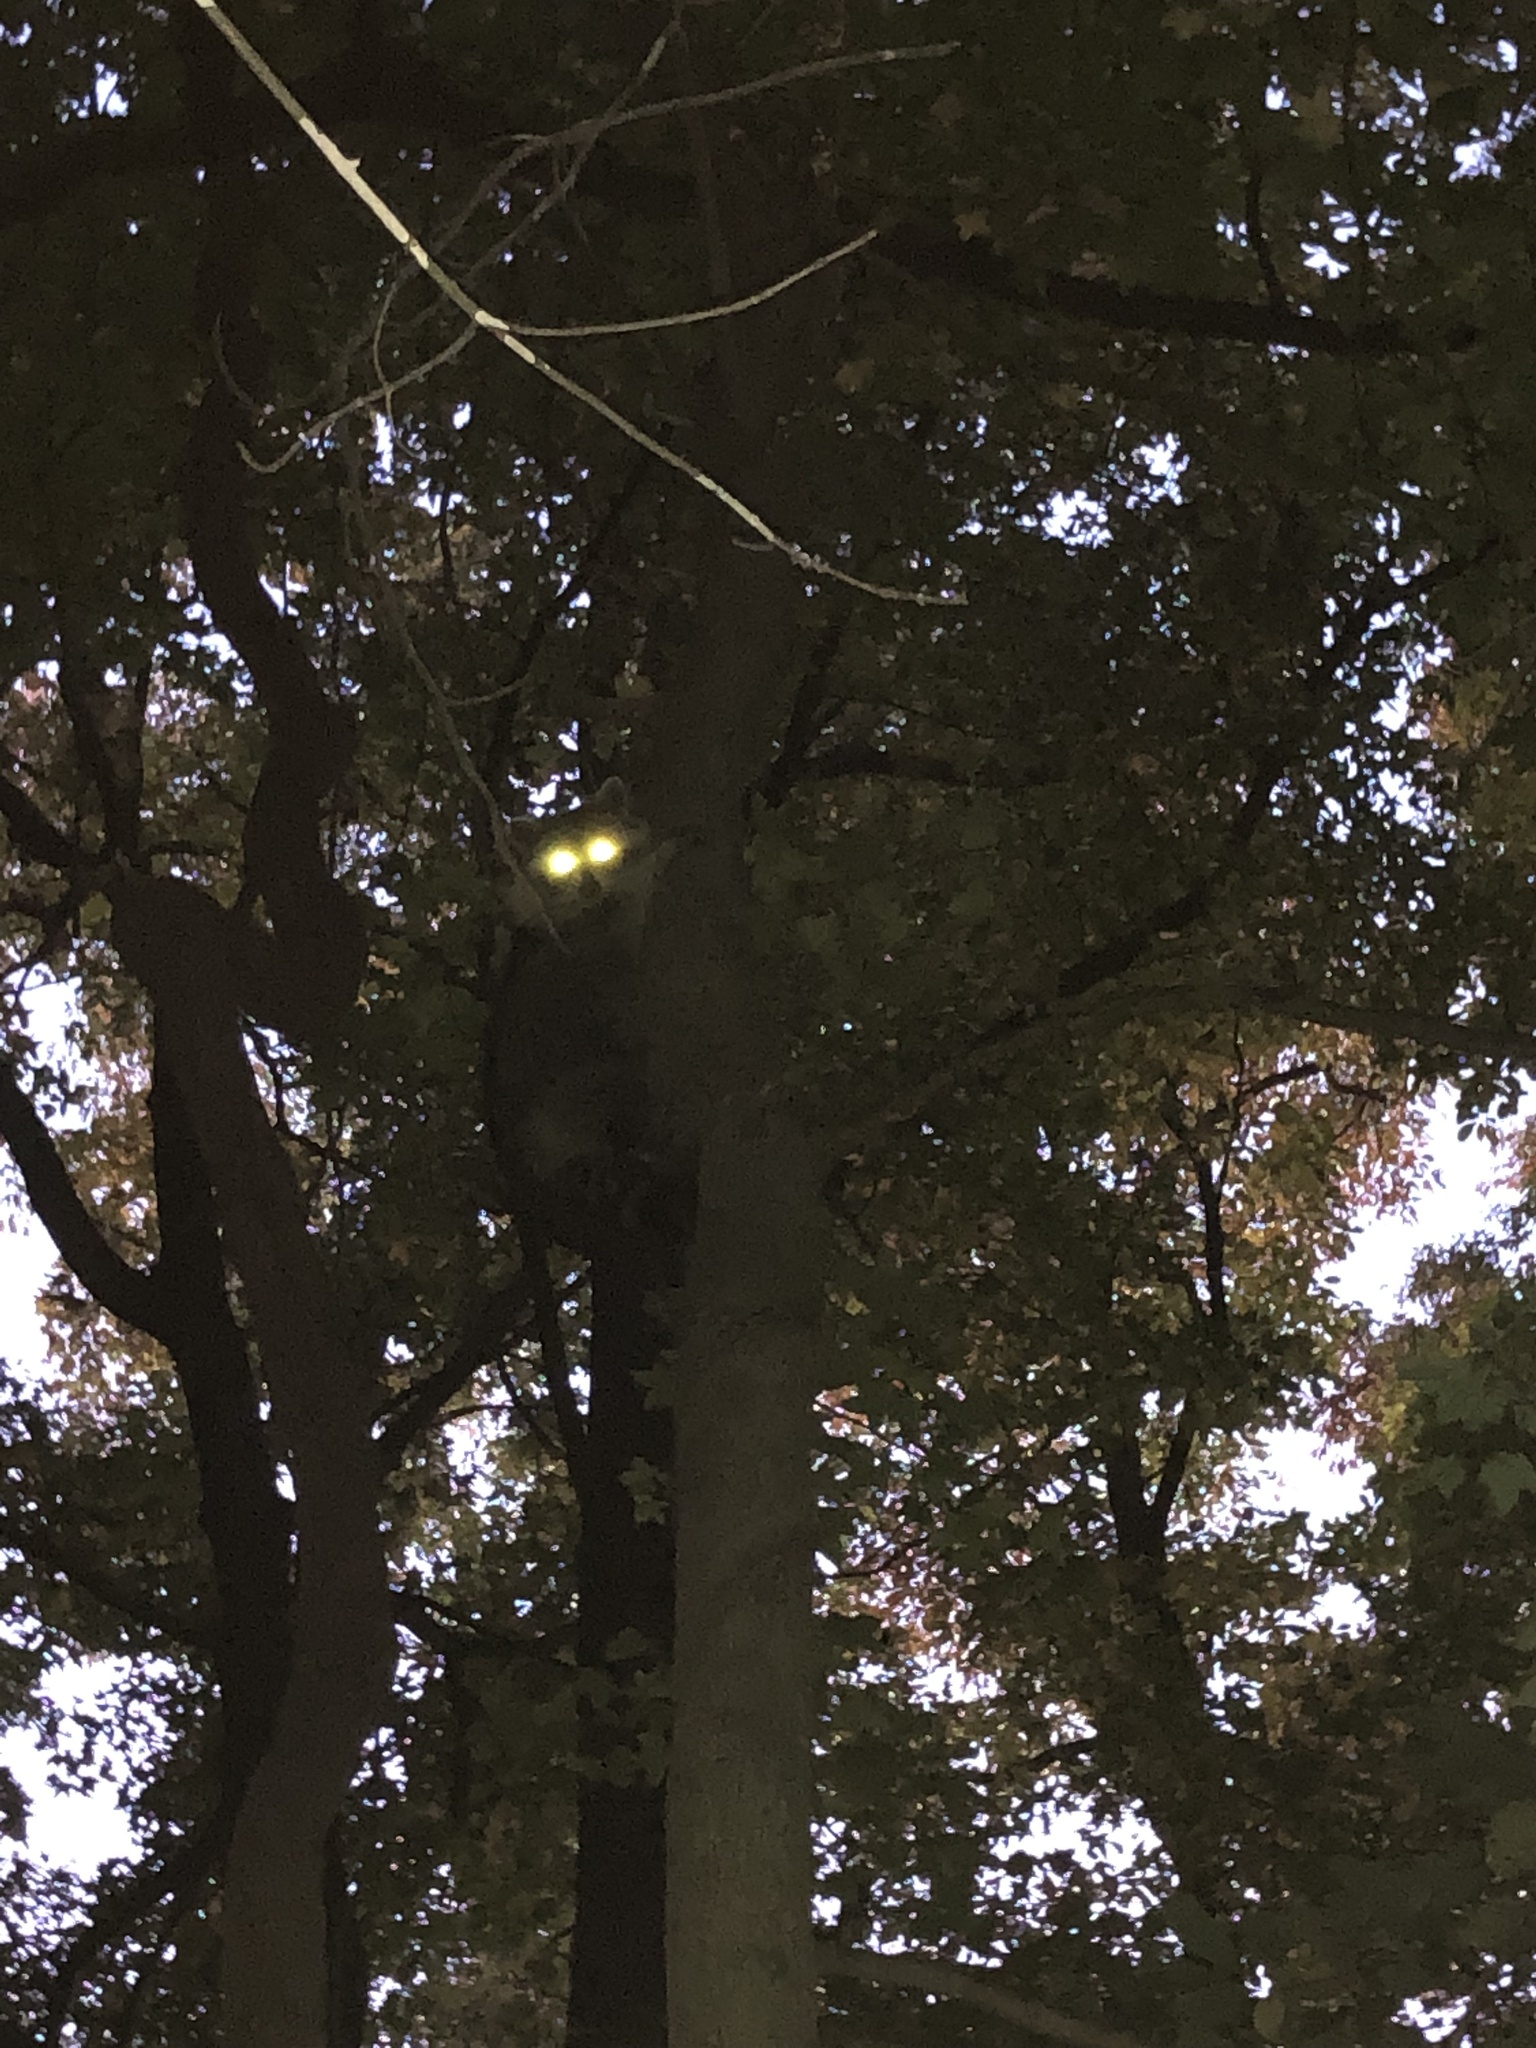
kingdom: Animalia
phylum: Chordata
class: Mammalia
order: Carnivora
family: Procyonidae
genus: Procyon
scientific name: Procyon lotor
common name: Raccoon
